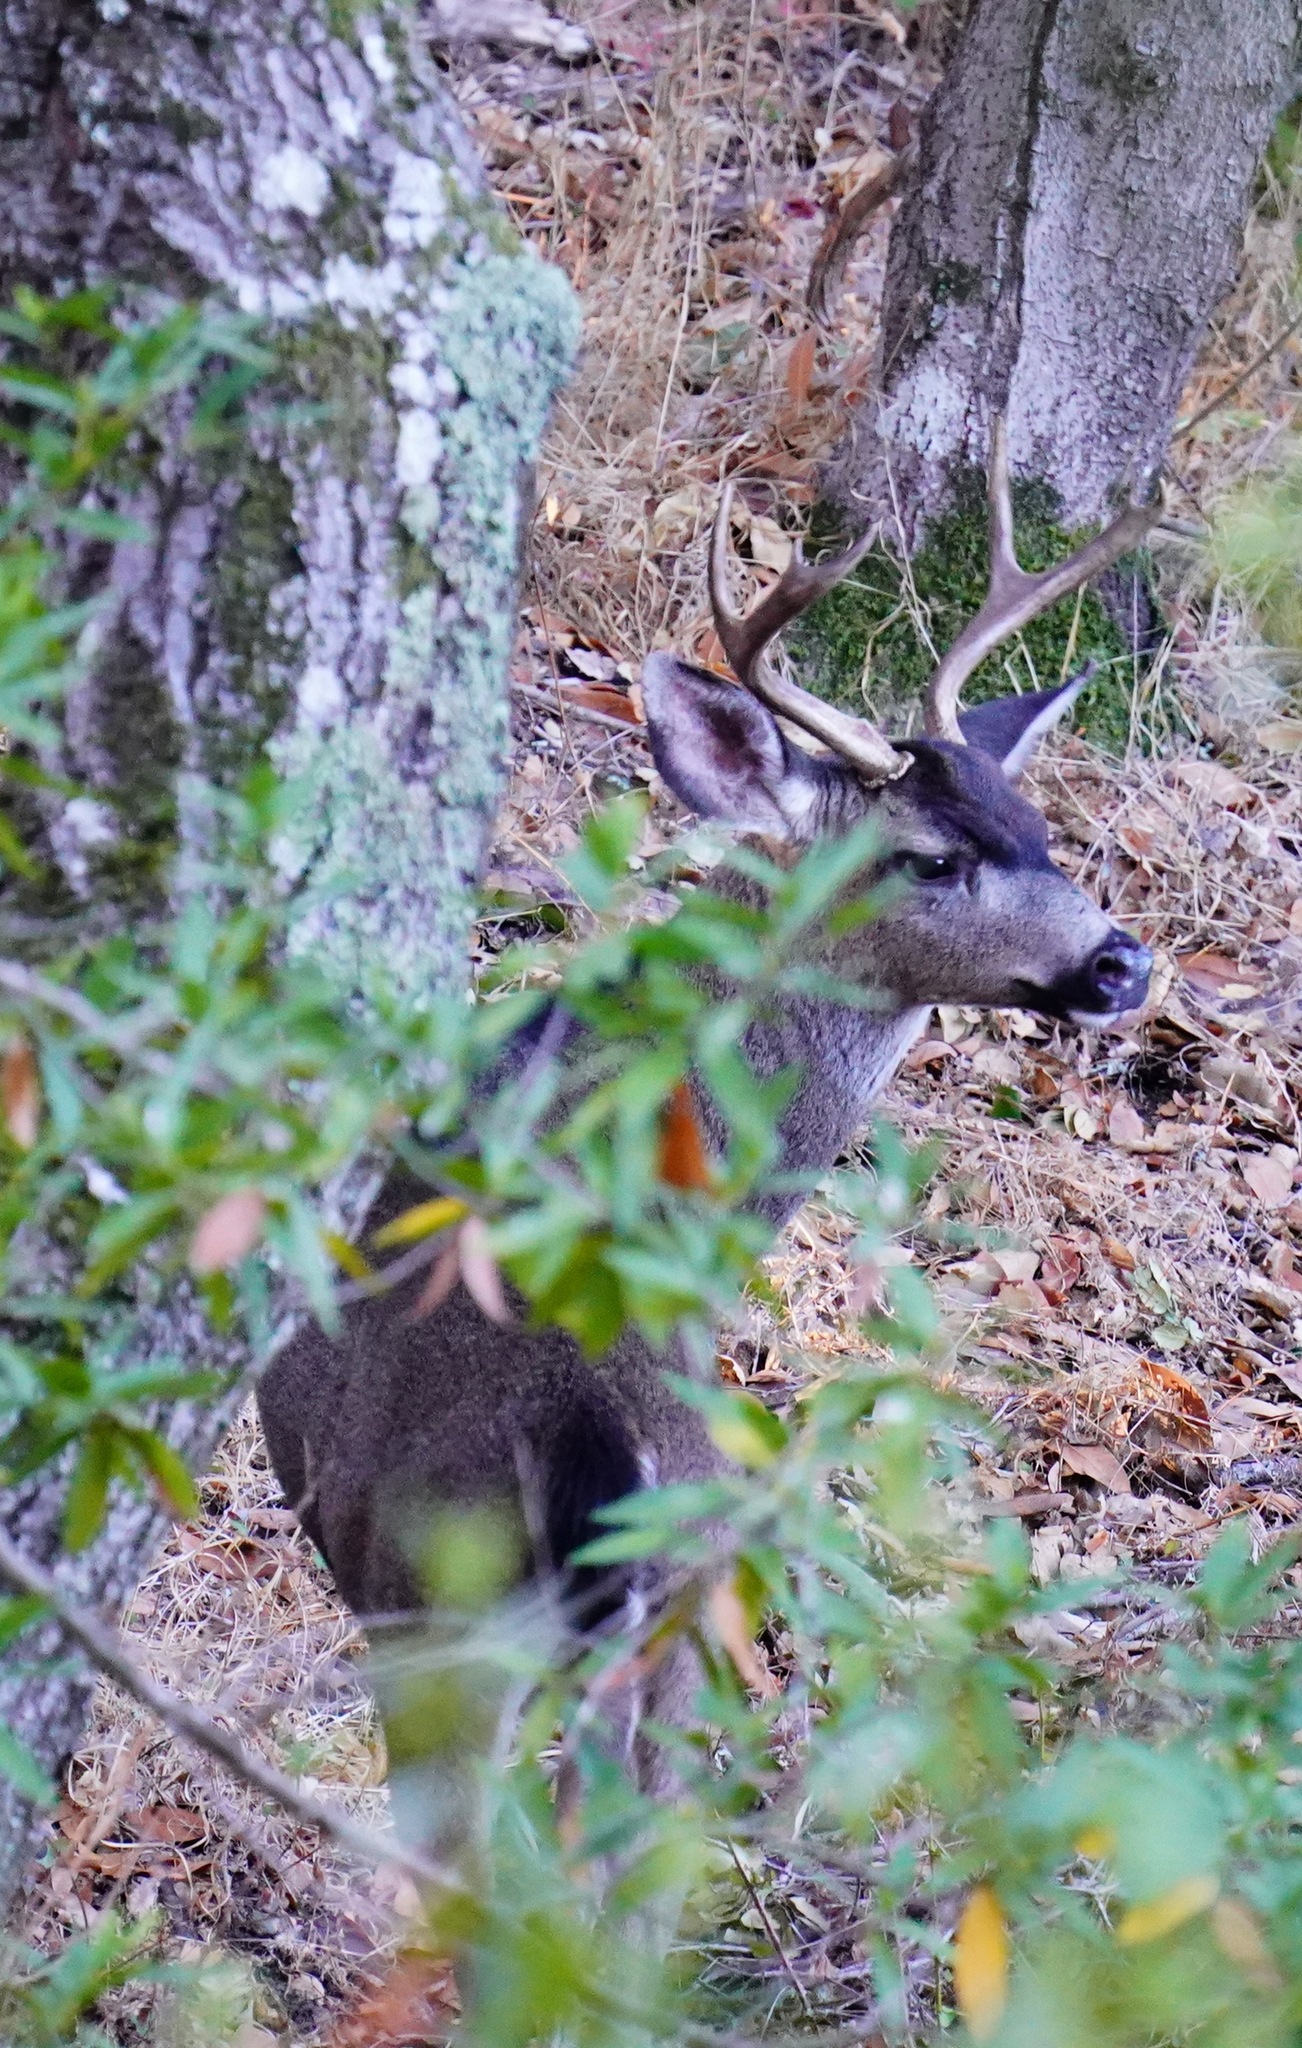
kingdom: Animalia
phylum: Chordata
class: Mammalia
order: Artiodactyla
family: Cervidae
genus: Odocoileus
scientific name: Odocoileus hemionus
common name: Mule deer
